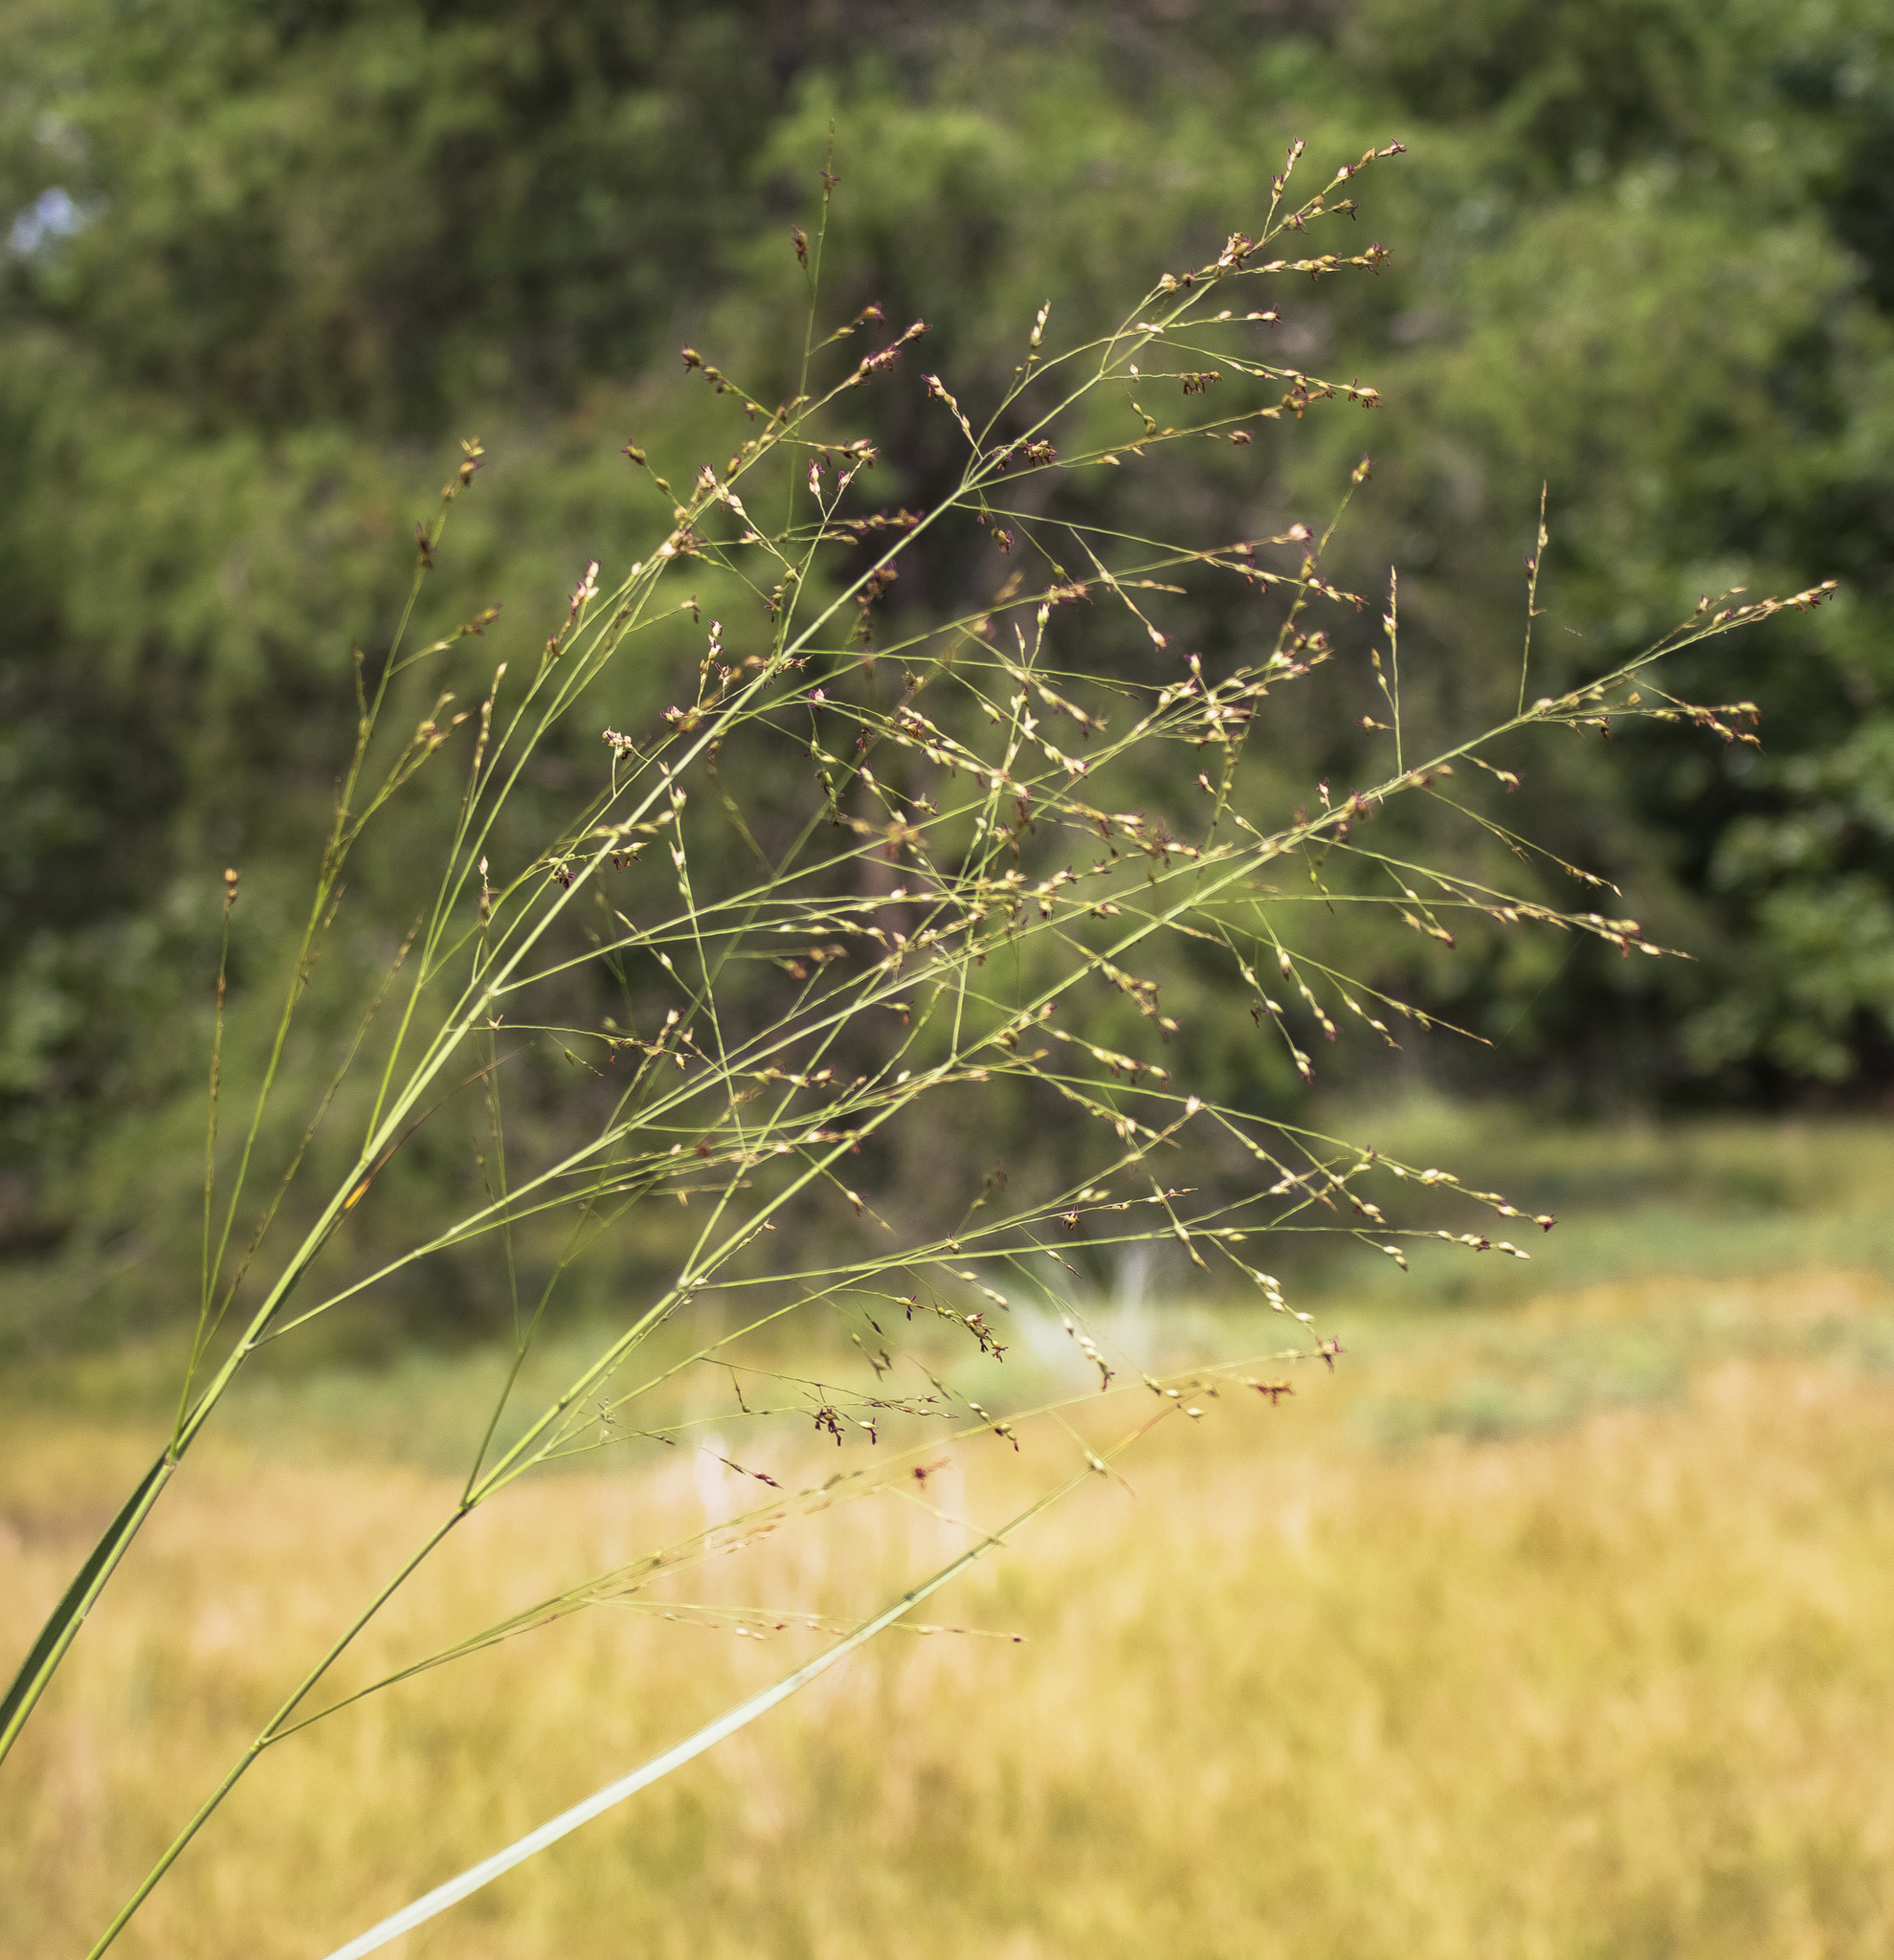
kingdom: Plantae
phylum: Tracheophyta
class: Liliopsida
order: Poales
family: Poaceae
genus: Panicum
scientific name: Panicum virgatum
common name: Switchgrass
